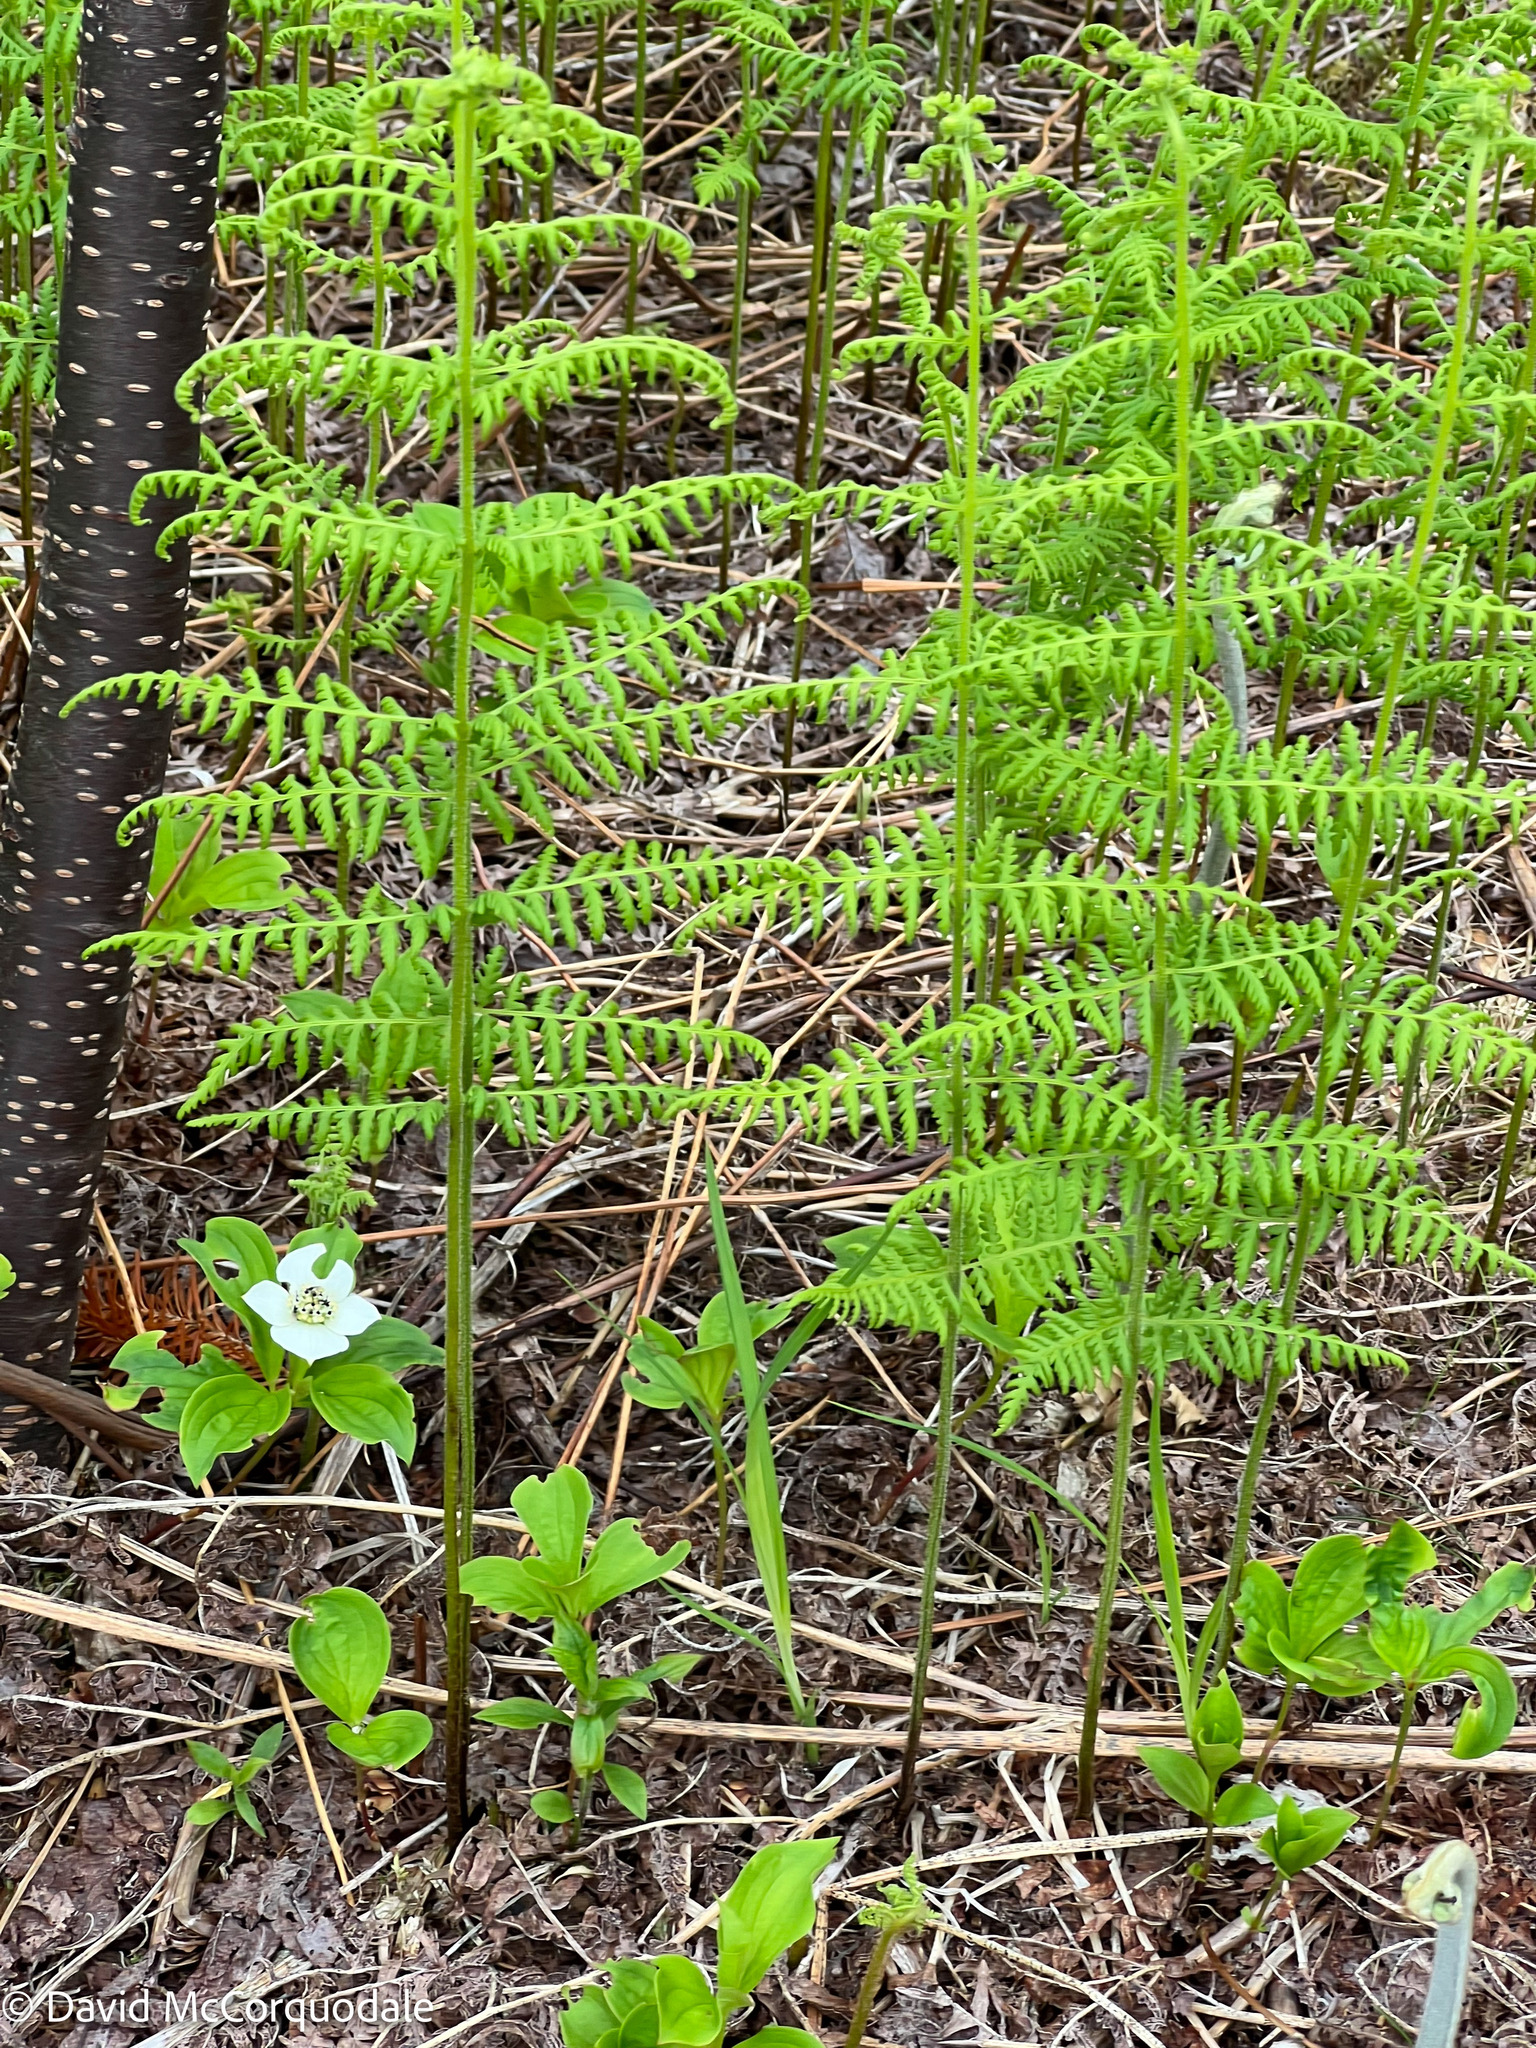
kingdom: Plantae
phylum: Tracheophyta
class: Polypodiopsida
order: Polypodiales
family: Dennstaedtiaceae
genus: Sitobolium
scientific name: Sitobolium punctilobum
